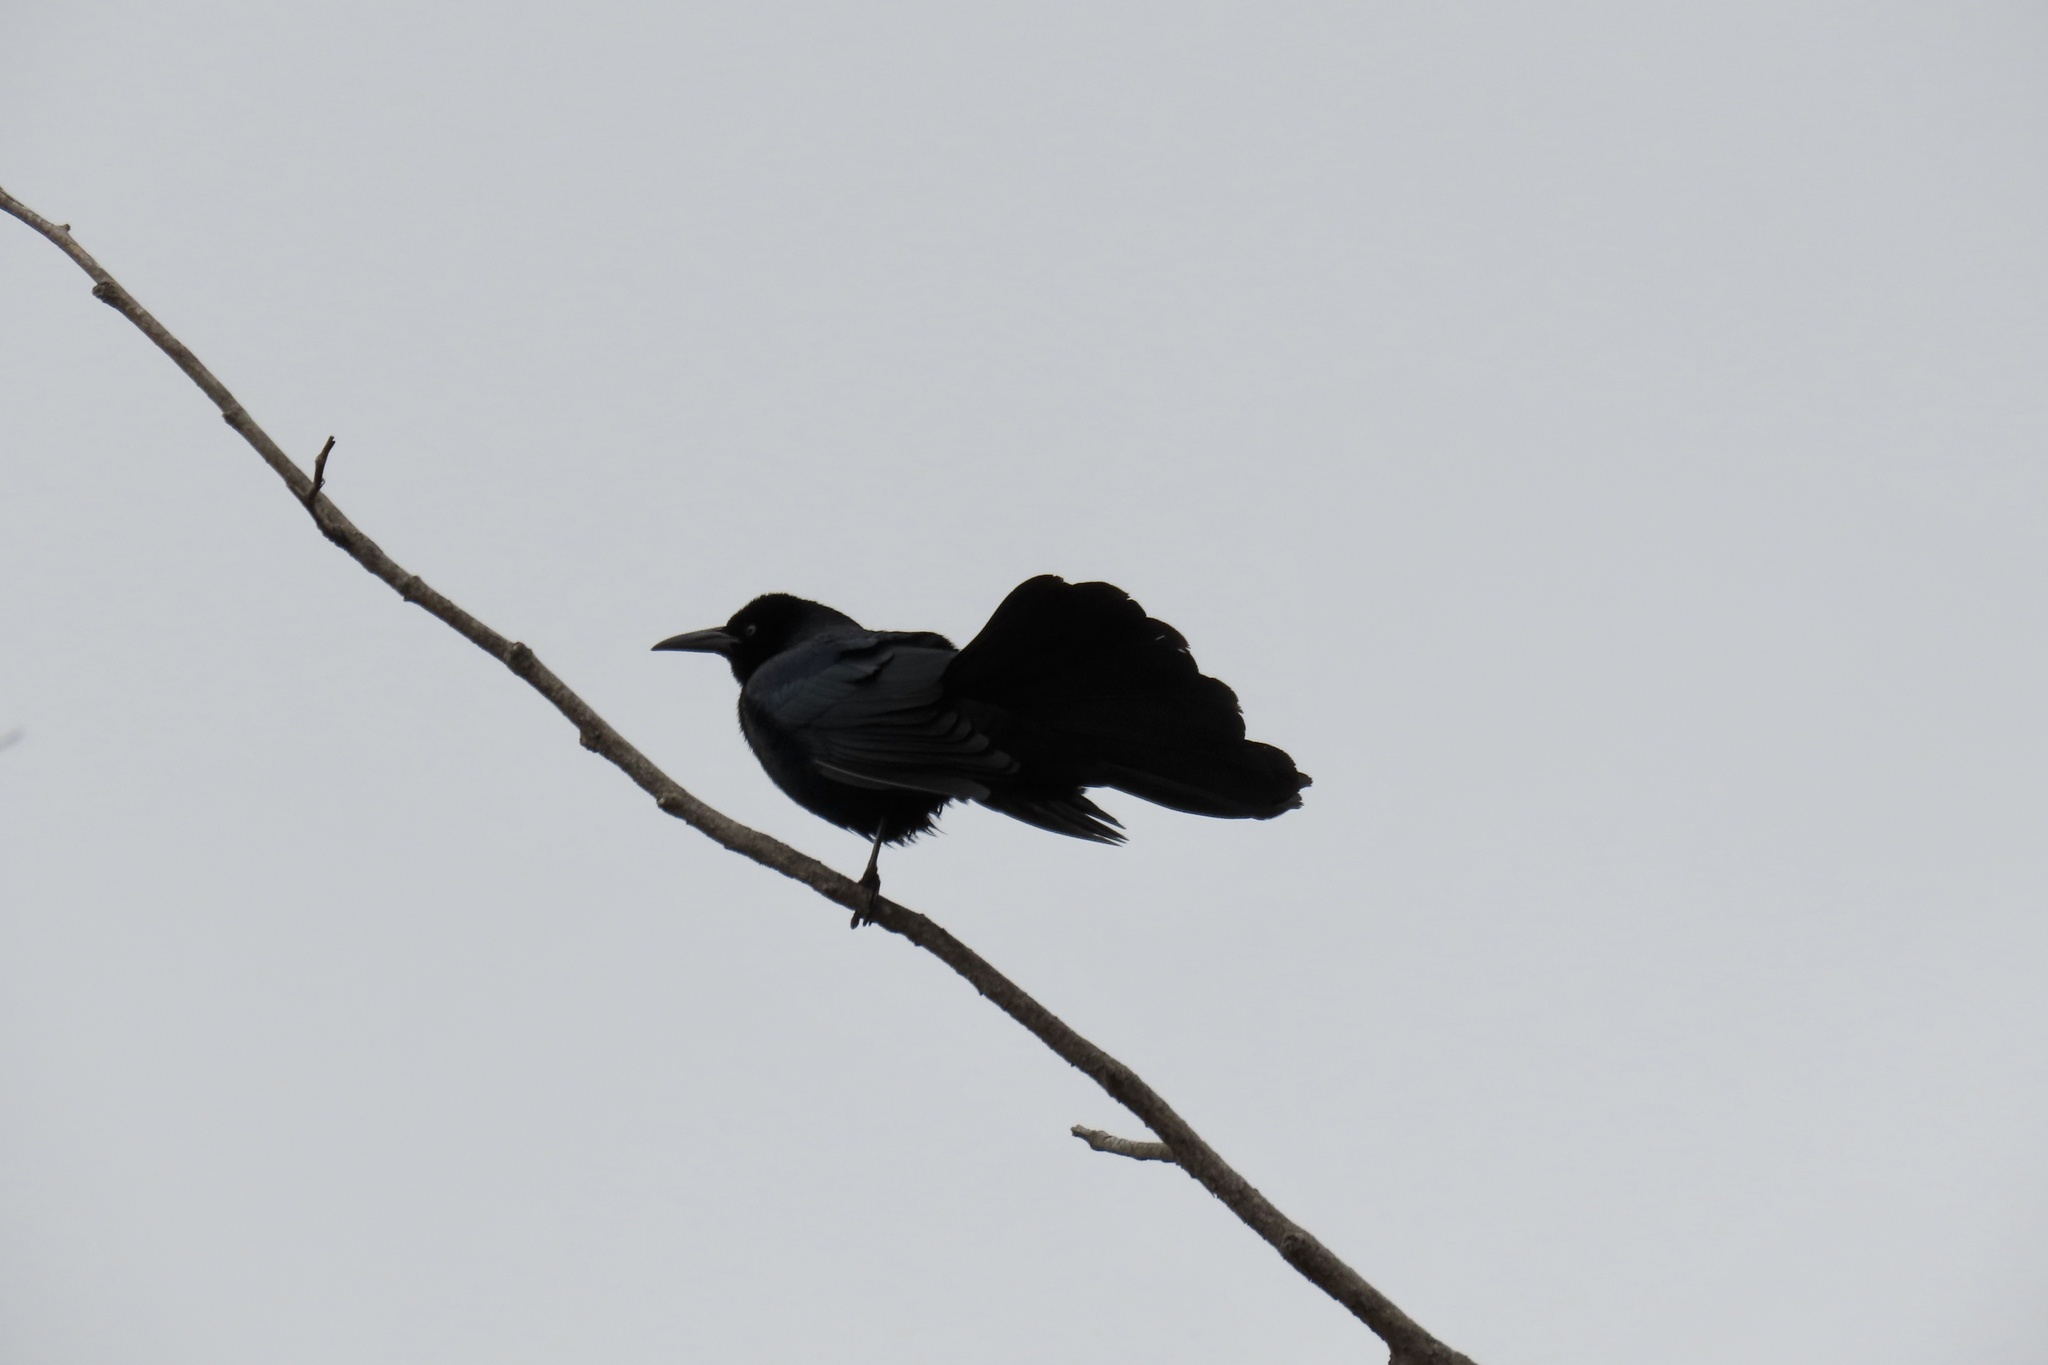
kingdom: Animalia
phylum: Chordata
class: Aves
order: Passeriformes
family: Icteridae
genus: Quiscalus
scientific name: Quiscalus mexicanus
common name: Great-tailed grackle
